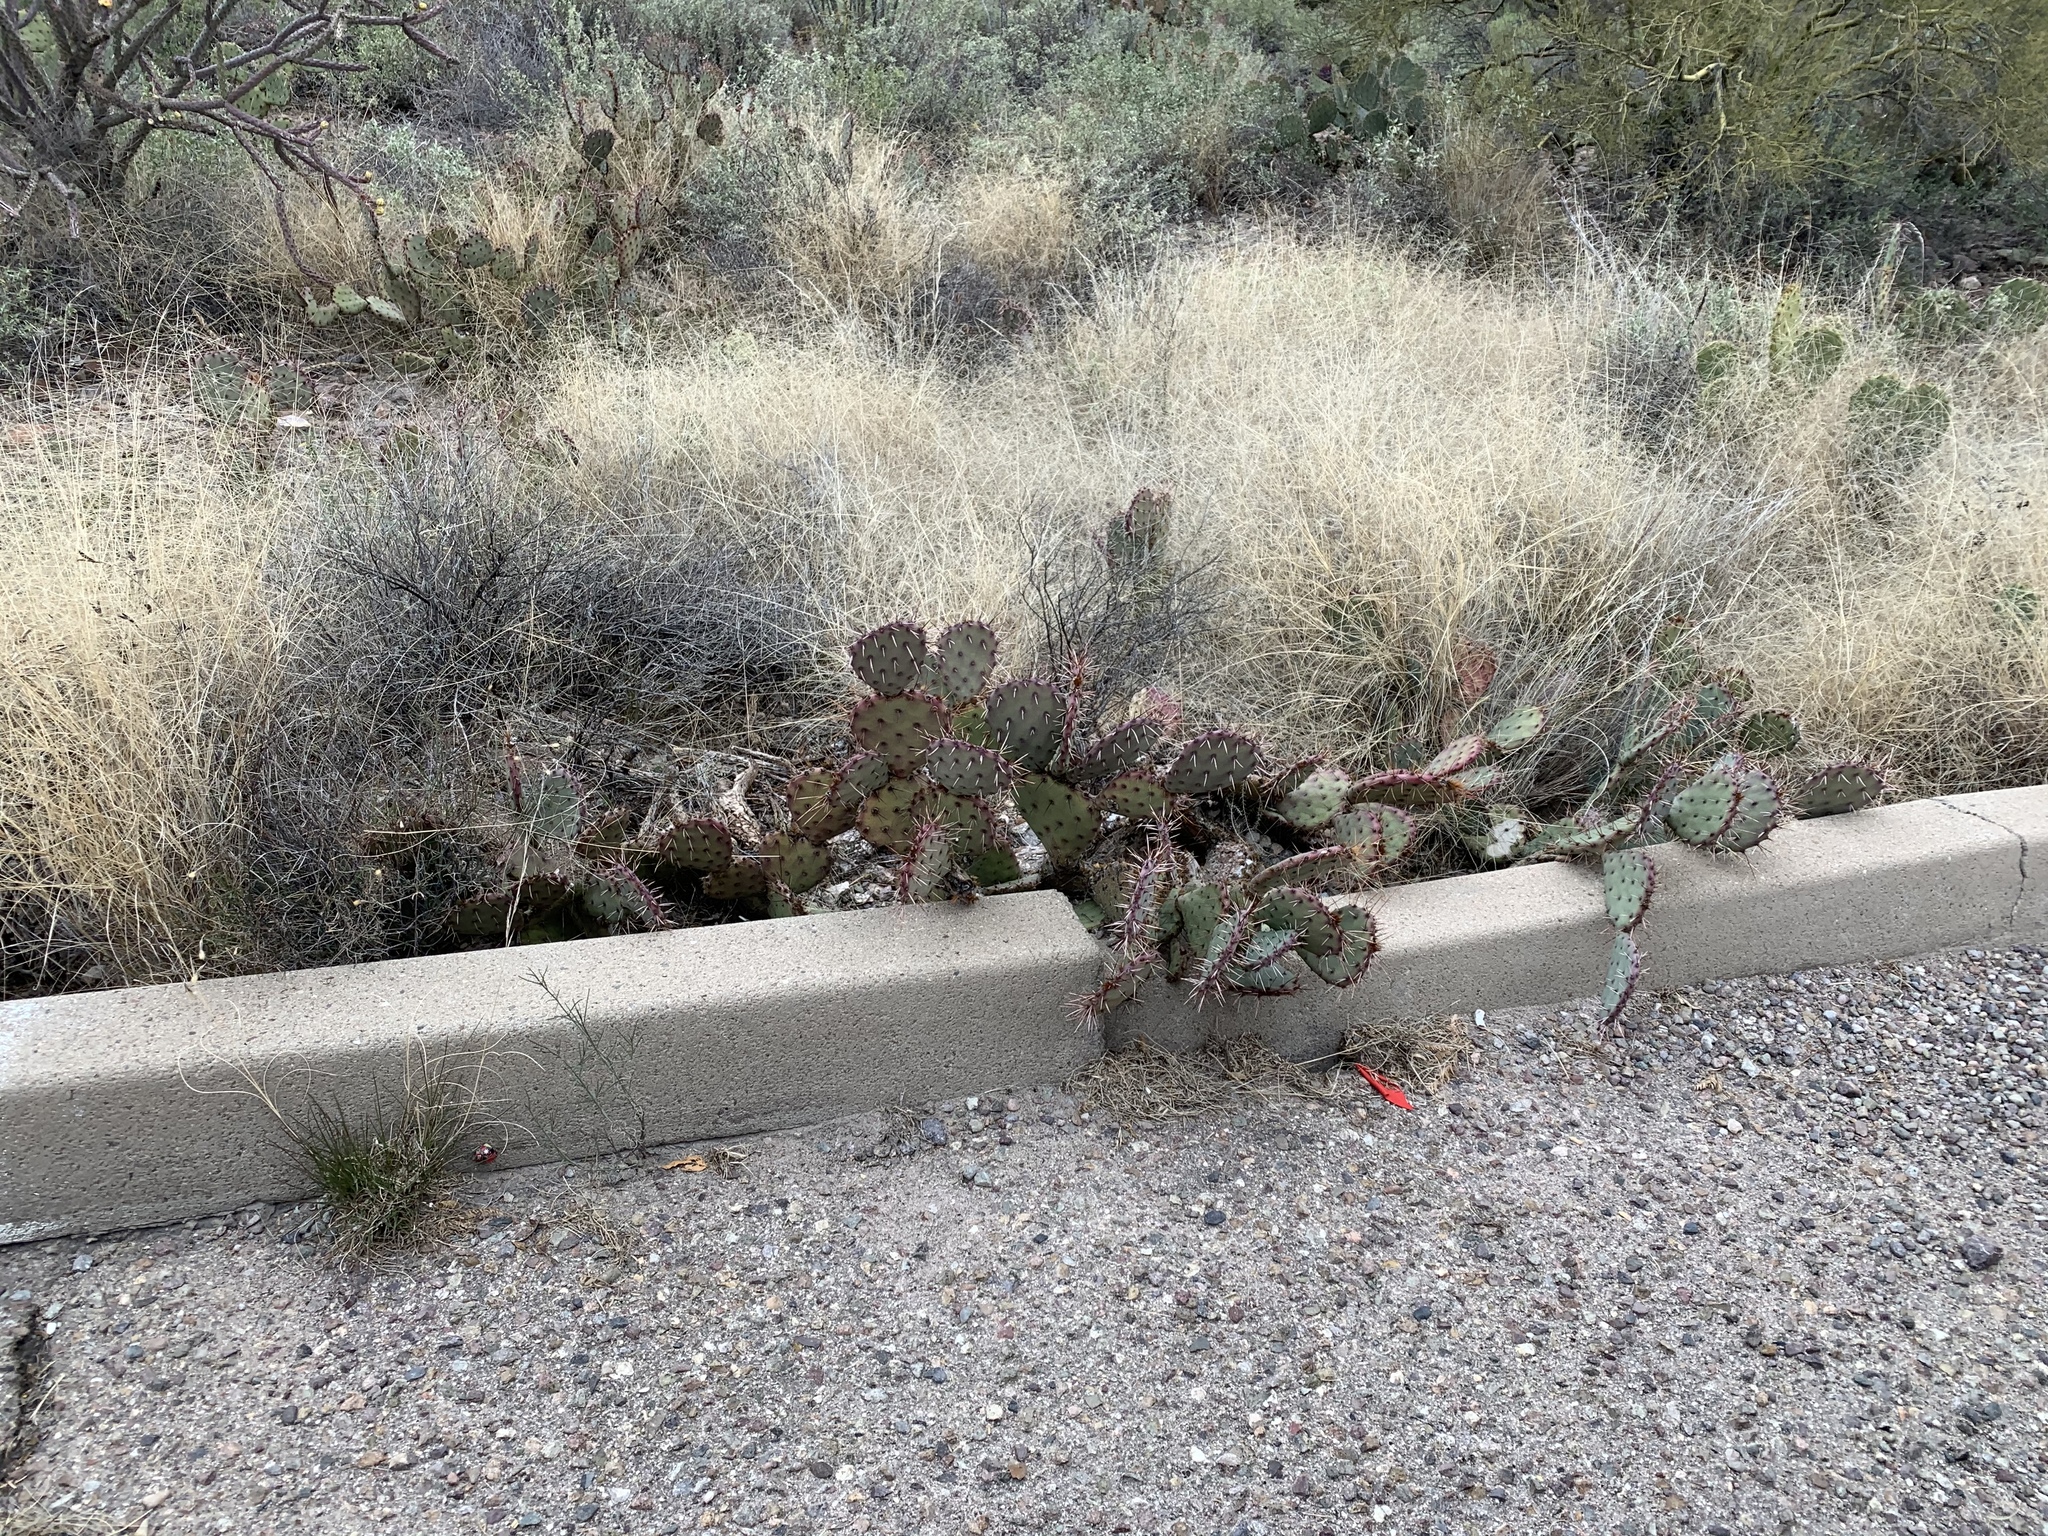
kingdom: Plantae
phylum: Tracheophyta
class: Magnoliopsida
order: Caryophyllales
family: Cactaceae
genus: Opuntia
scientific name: Opuntia phaeacantha
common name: New mexico prickly-pear
